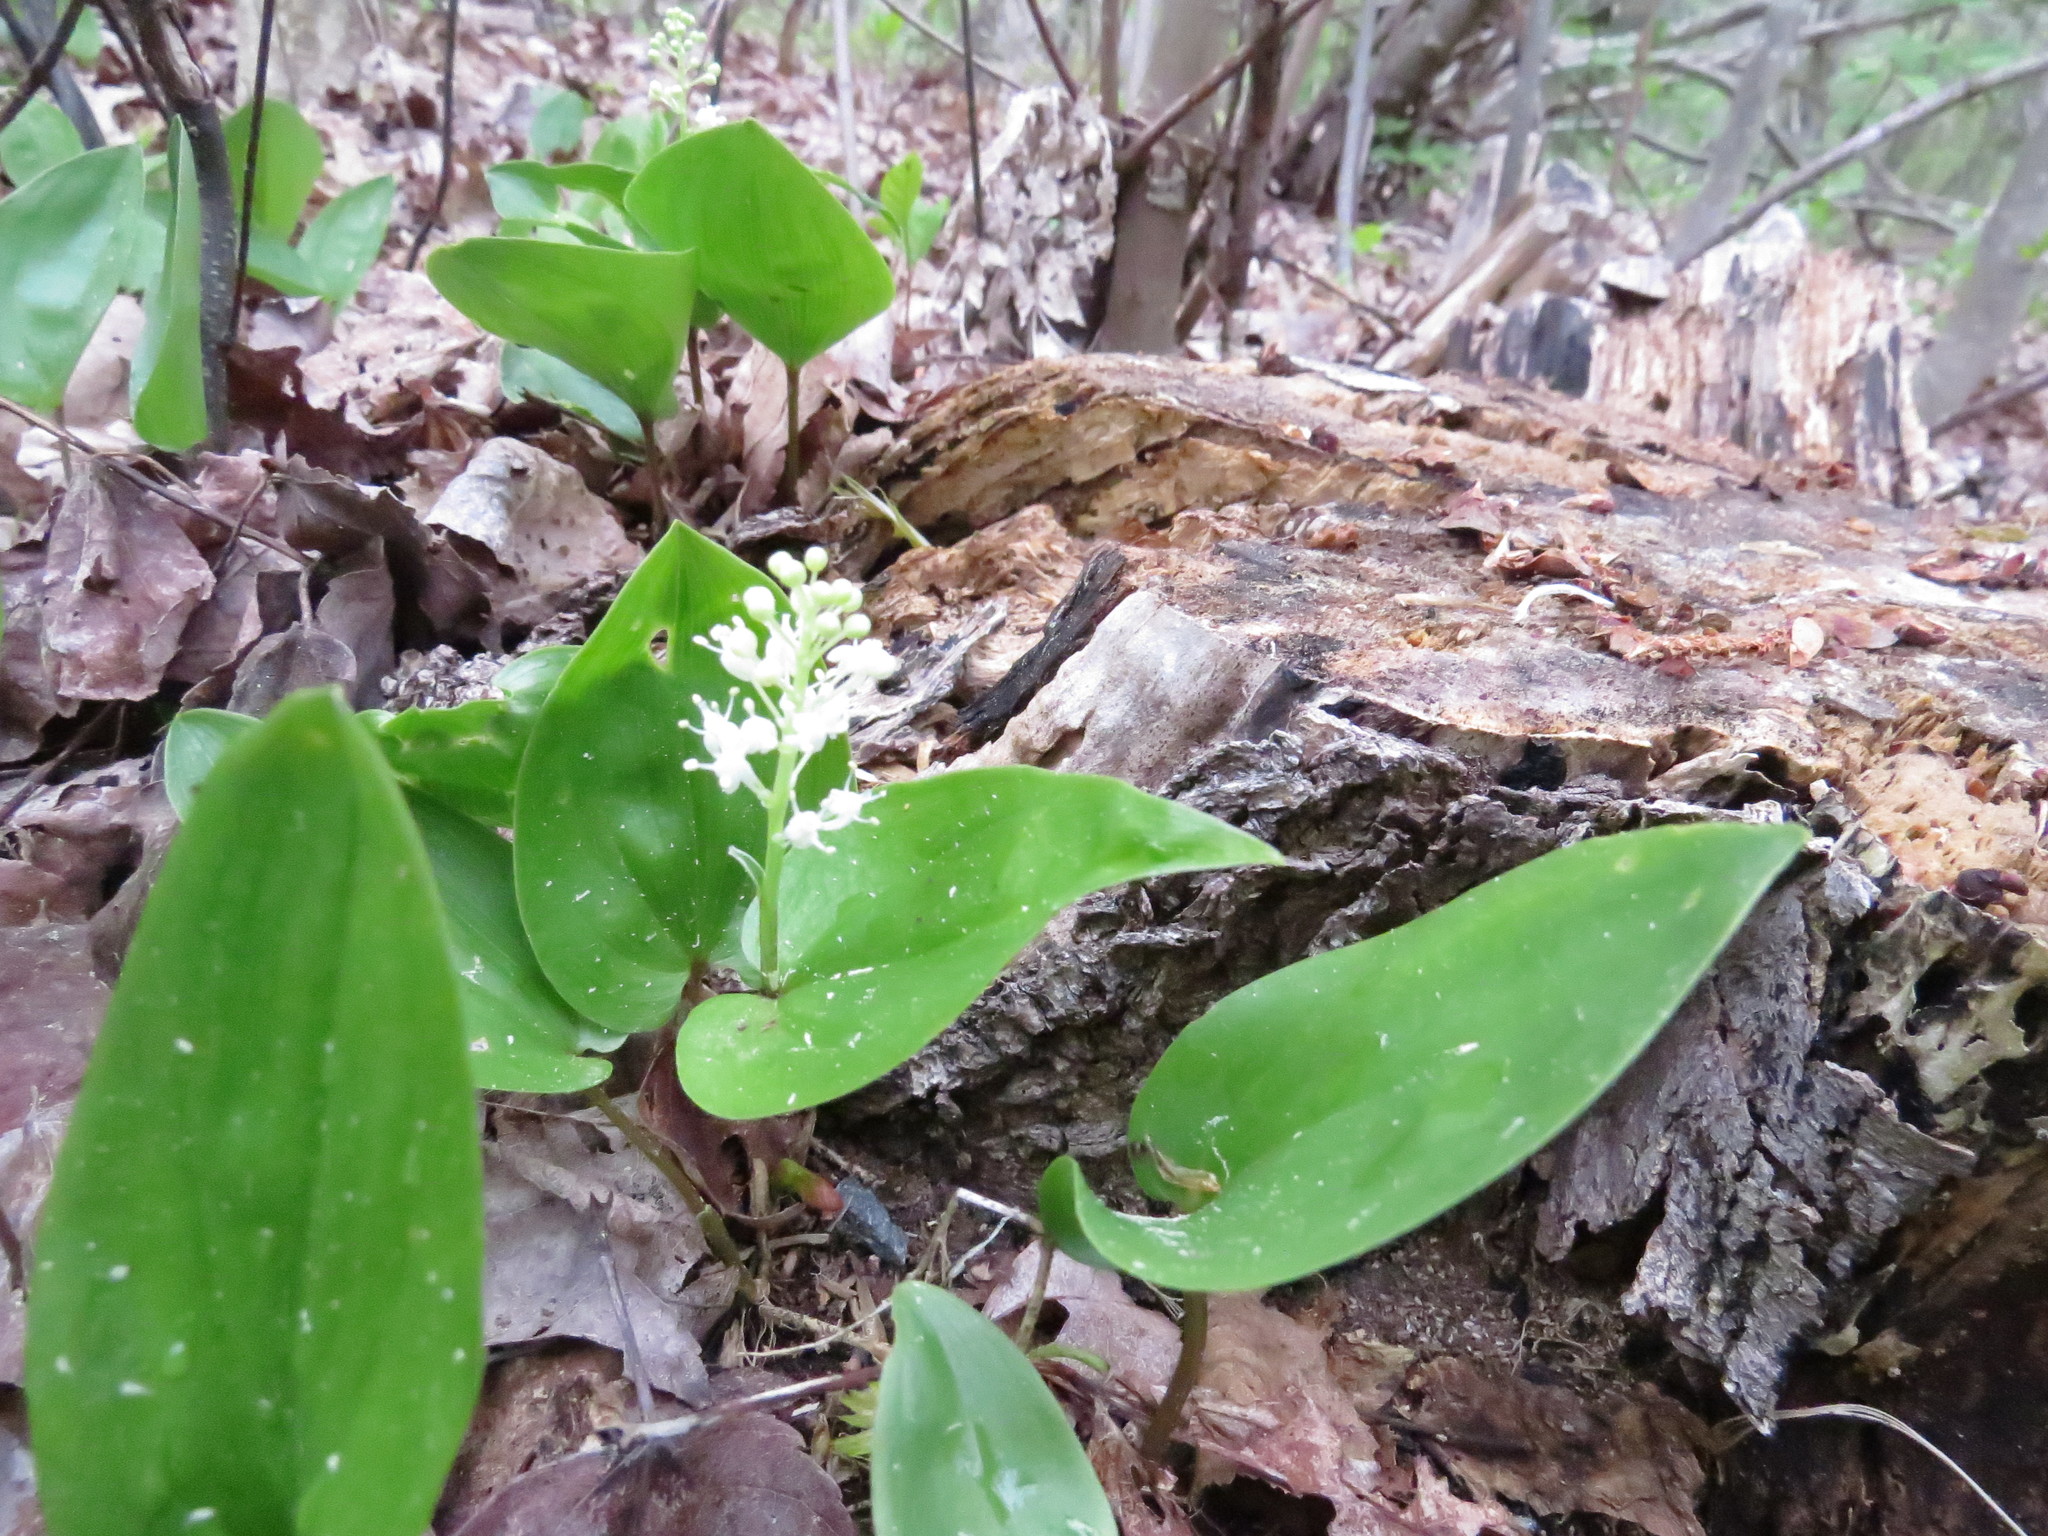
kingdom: Plantae
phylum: Tracheophyta
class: Liliopsida
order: Asparagales
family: Asparagaceae
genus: Maianthemum
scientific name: Maianthemum canadense
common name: False lily-of-the-valley
